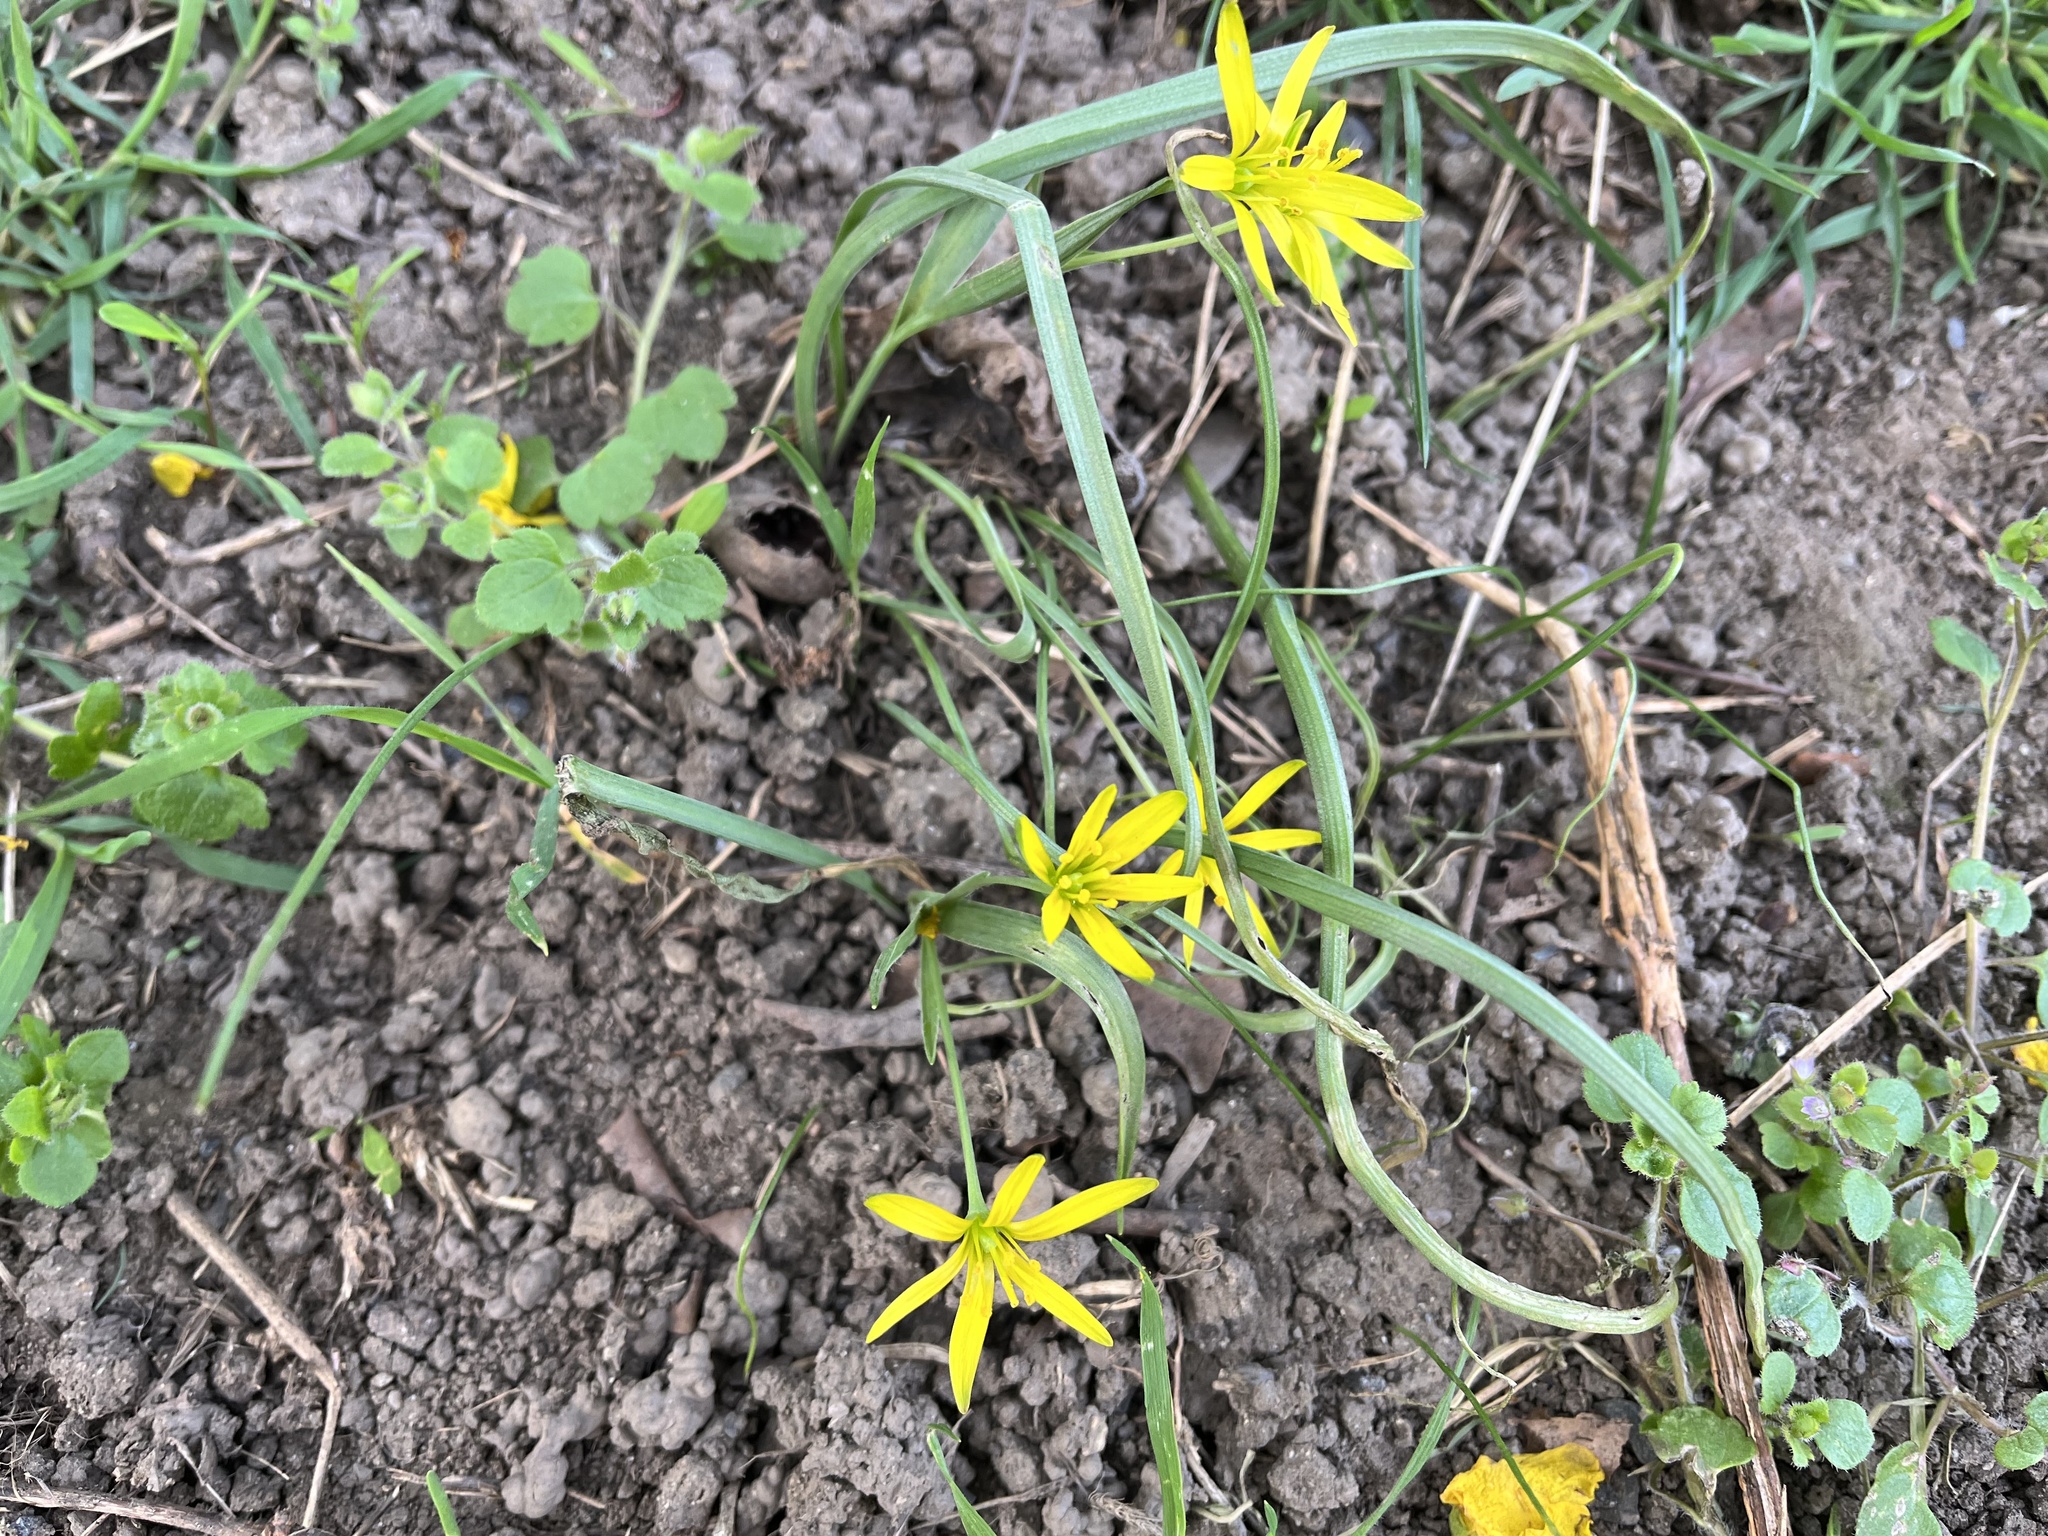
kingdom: Plantae
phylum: Tracheophyta
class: Liliopsida
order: Liliales
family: Liliaceae
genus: Gagea
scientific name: Gagea pratensis
